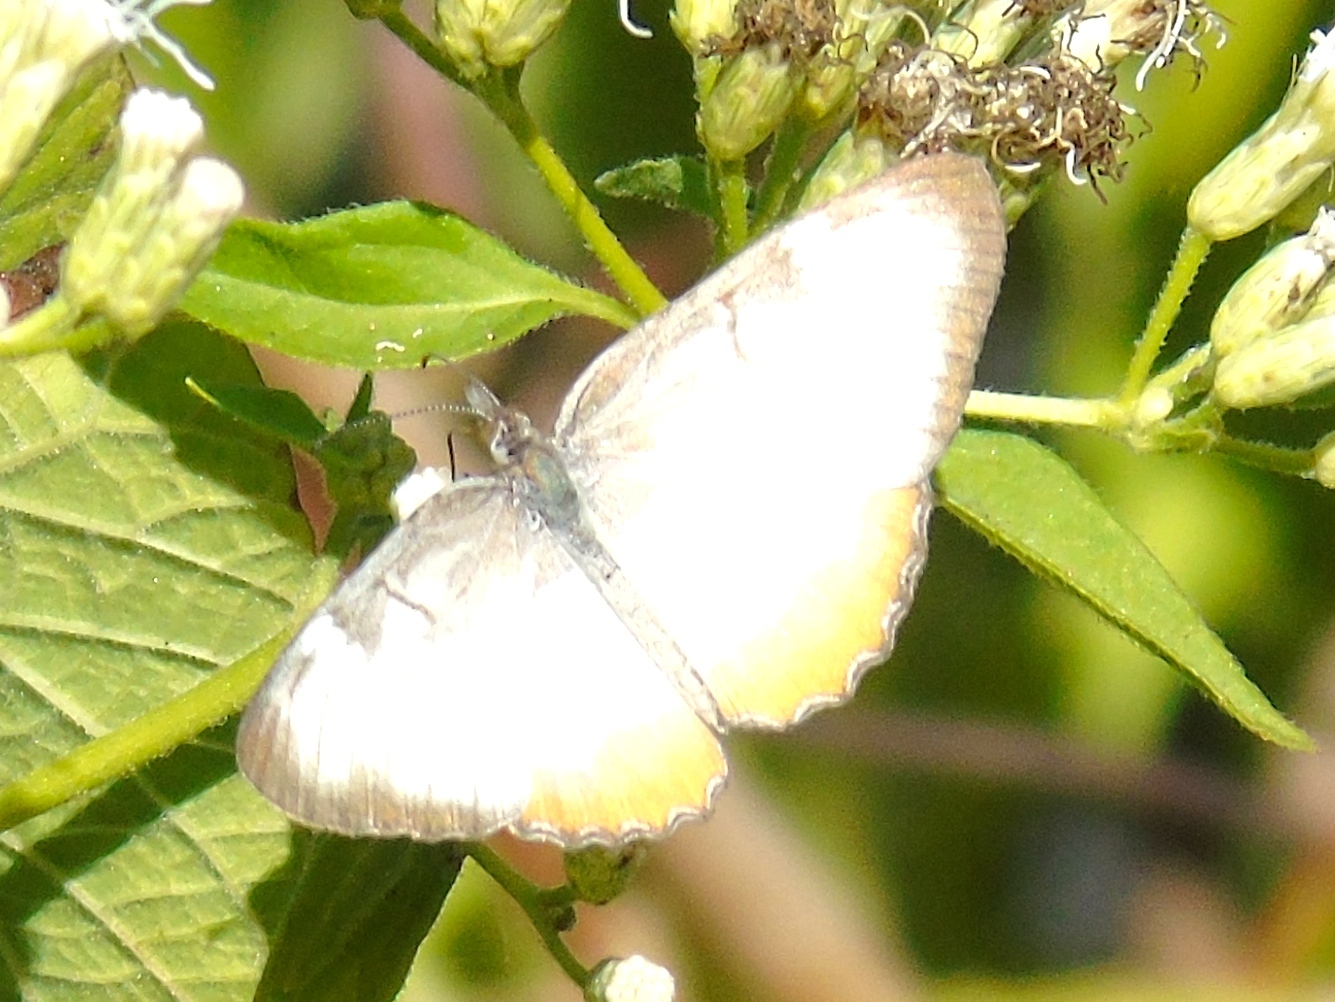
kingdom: Animalia
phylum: Arthropoda
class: Insecta
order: Lepidoptera
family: Nymphalidae
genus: Mestra
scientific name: Mestra amymone
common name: Common mestra
